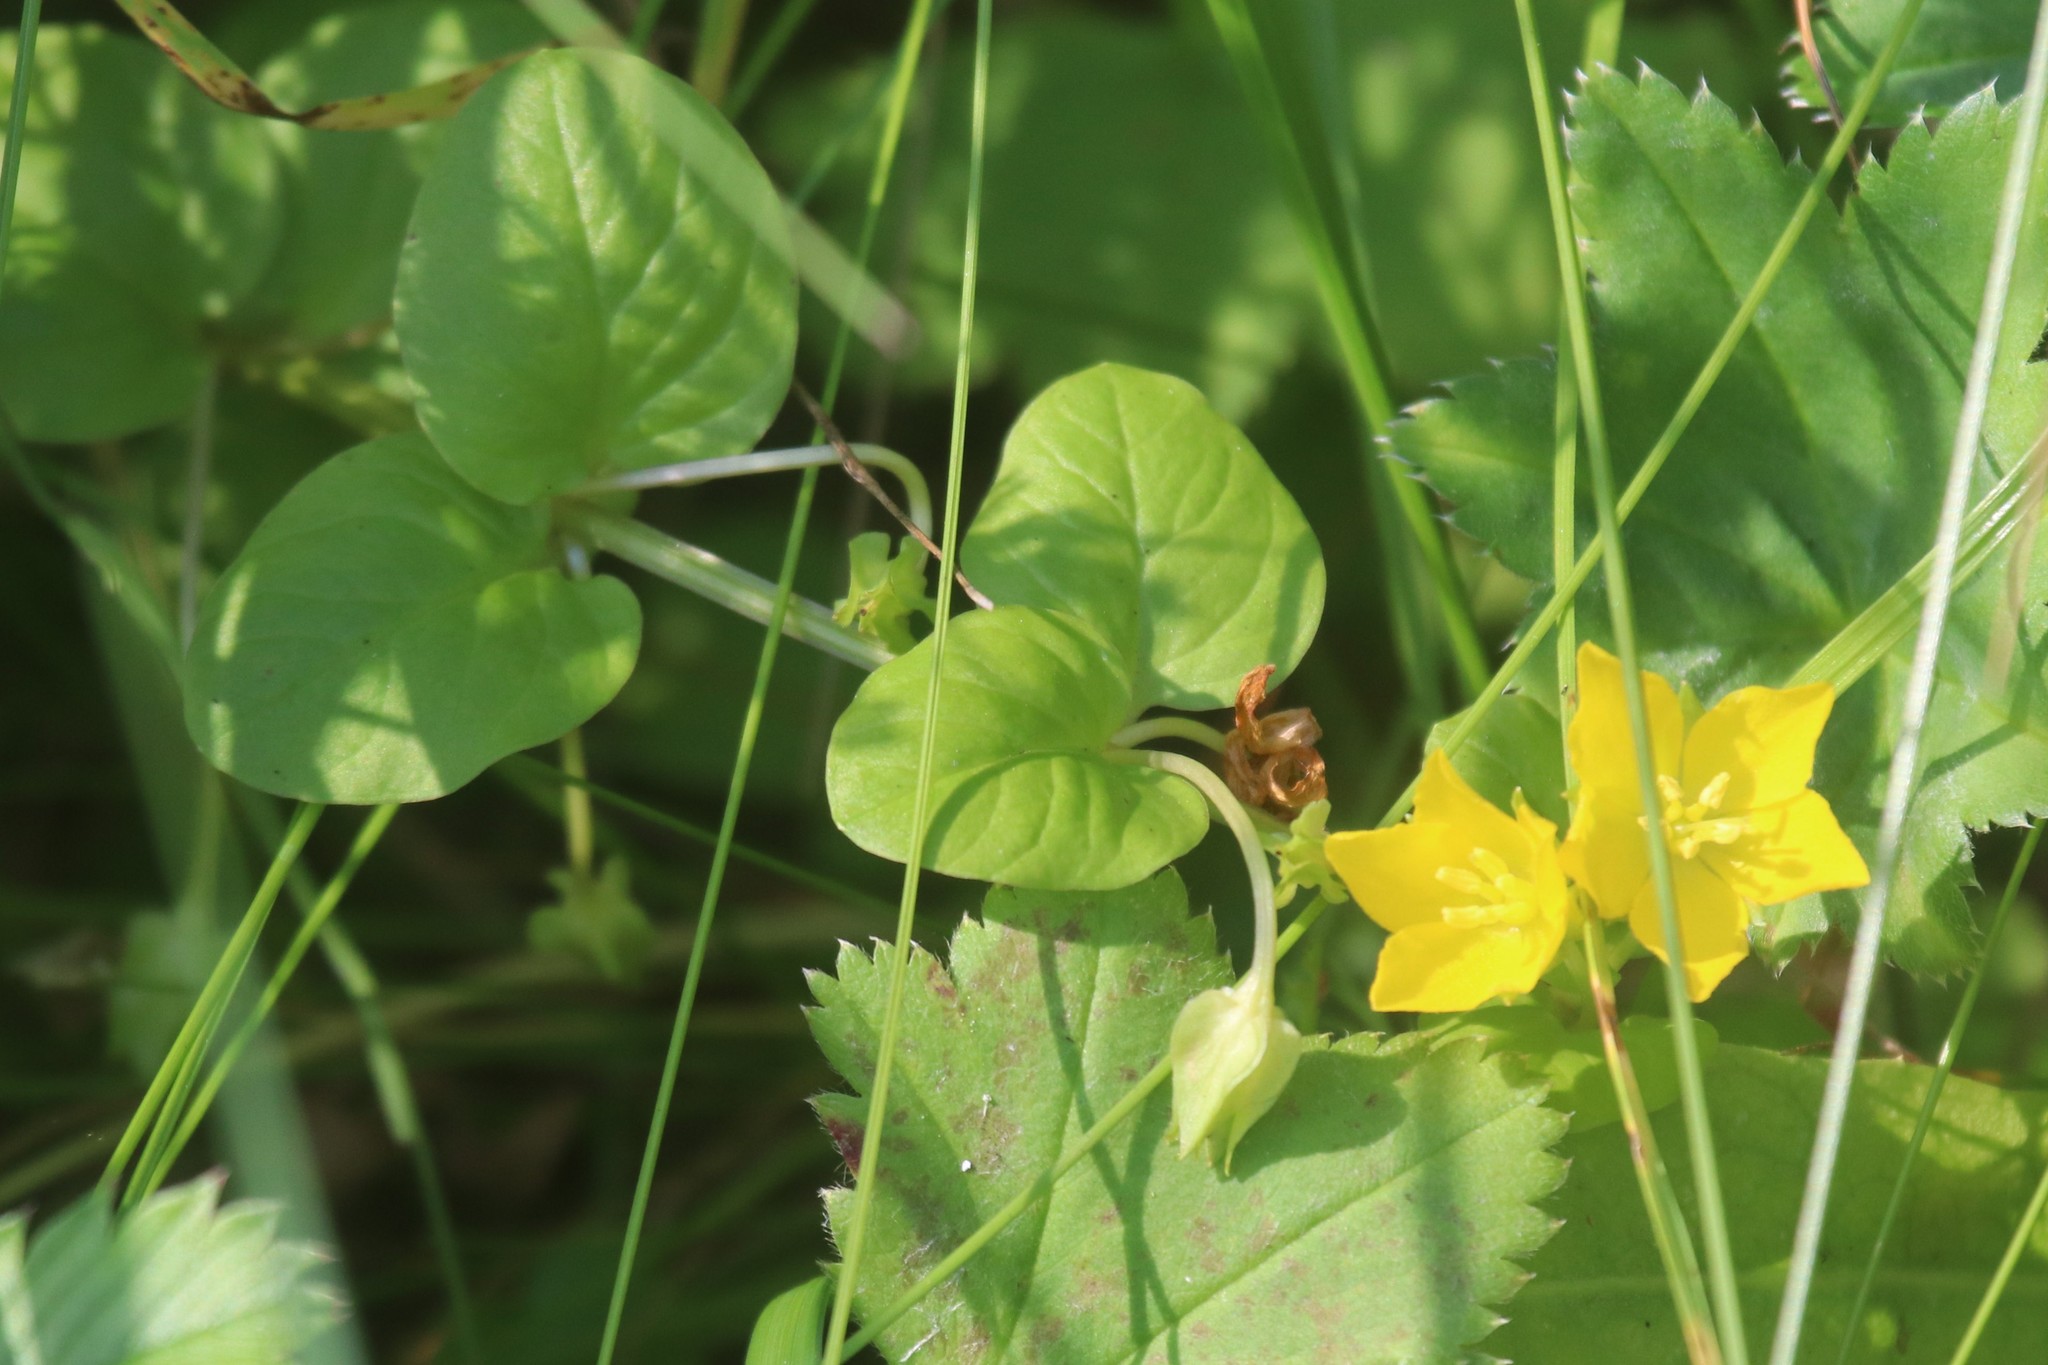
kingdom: Plantae
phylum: Tracheophyta
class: Magnoliopsida
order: Ericales
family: Primulaceae
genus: Lysimachia
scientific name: Lysimachia nummularia
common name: Moneywort
